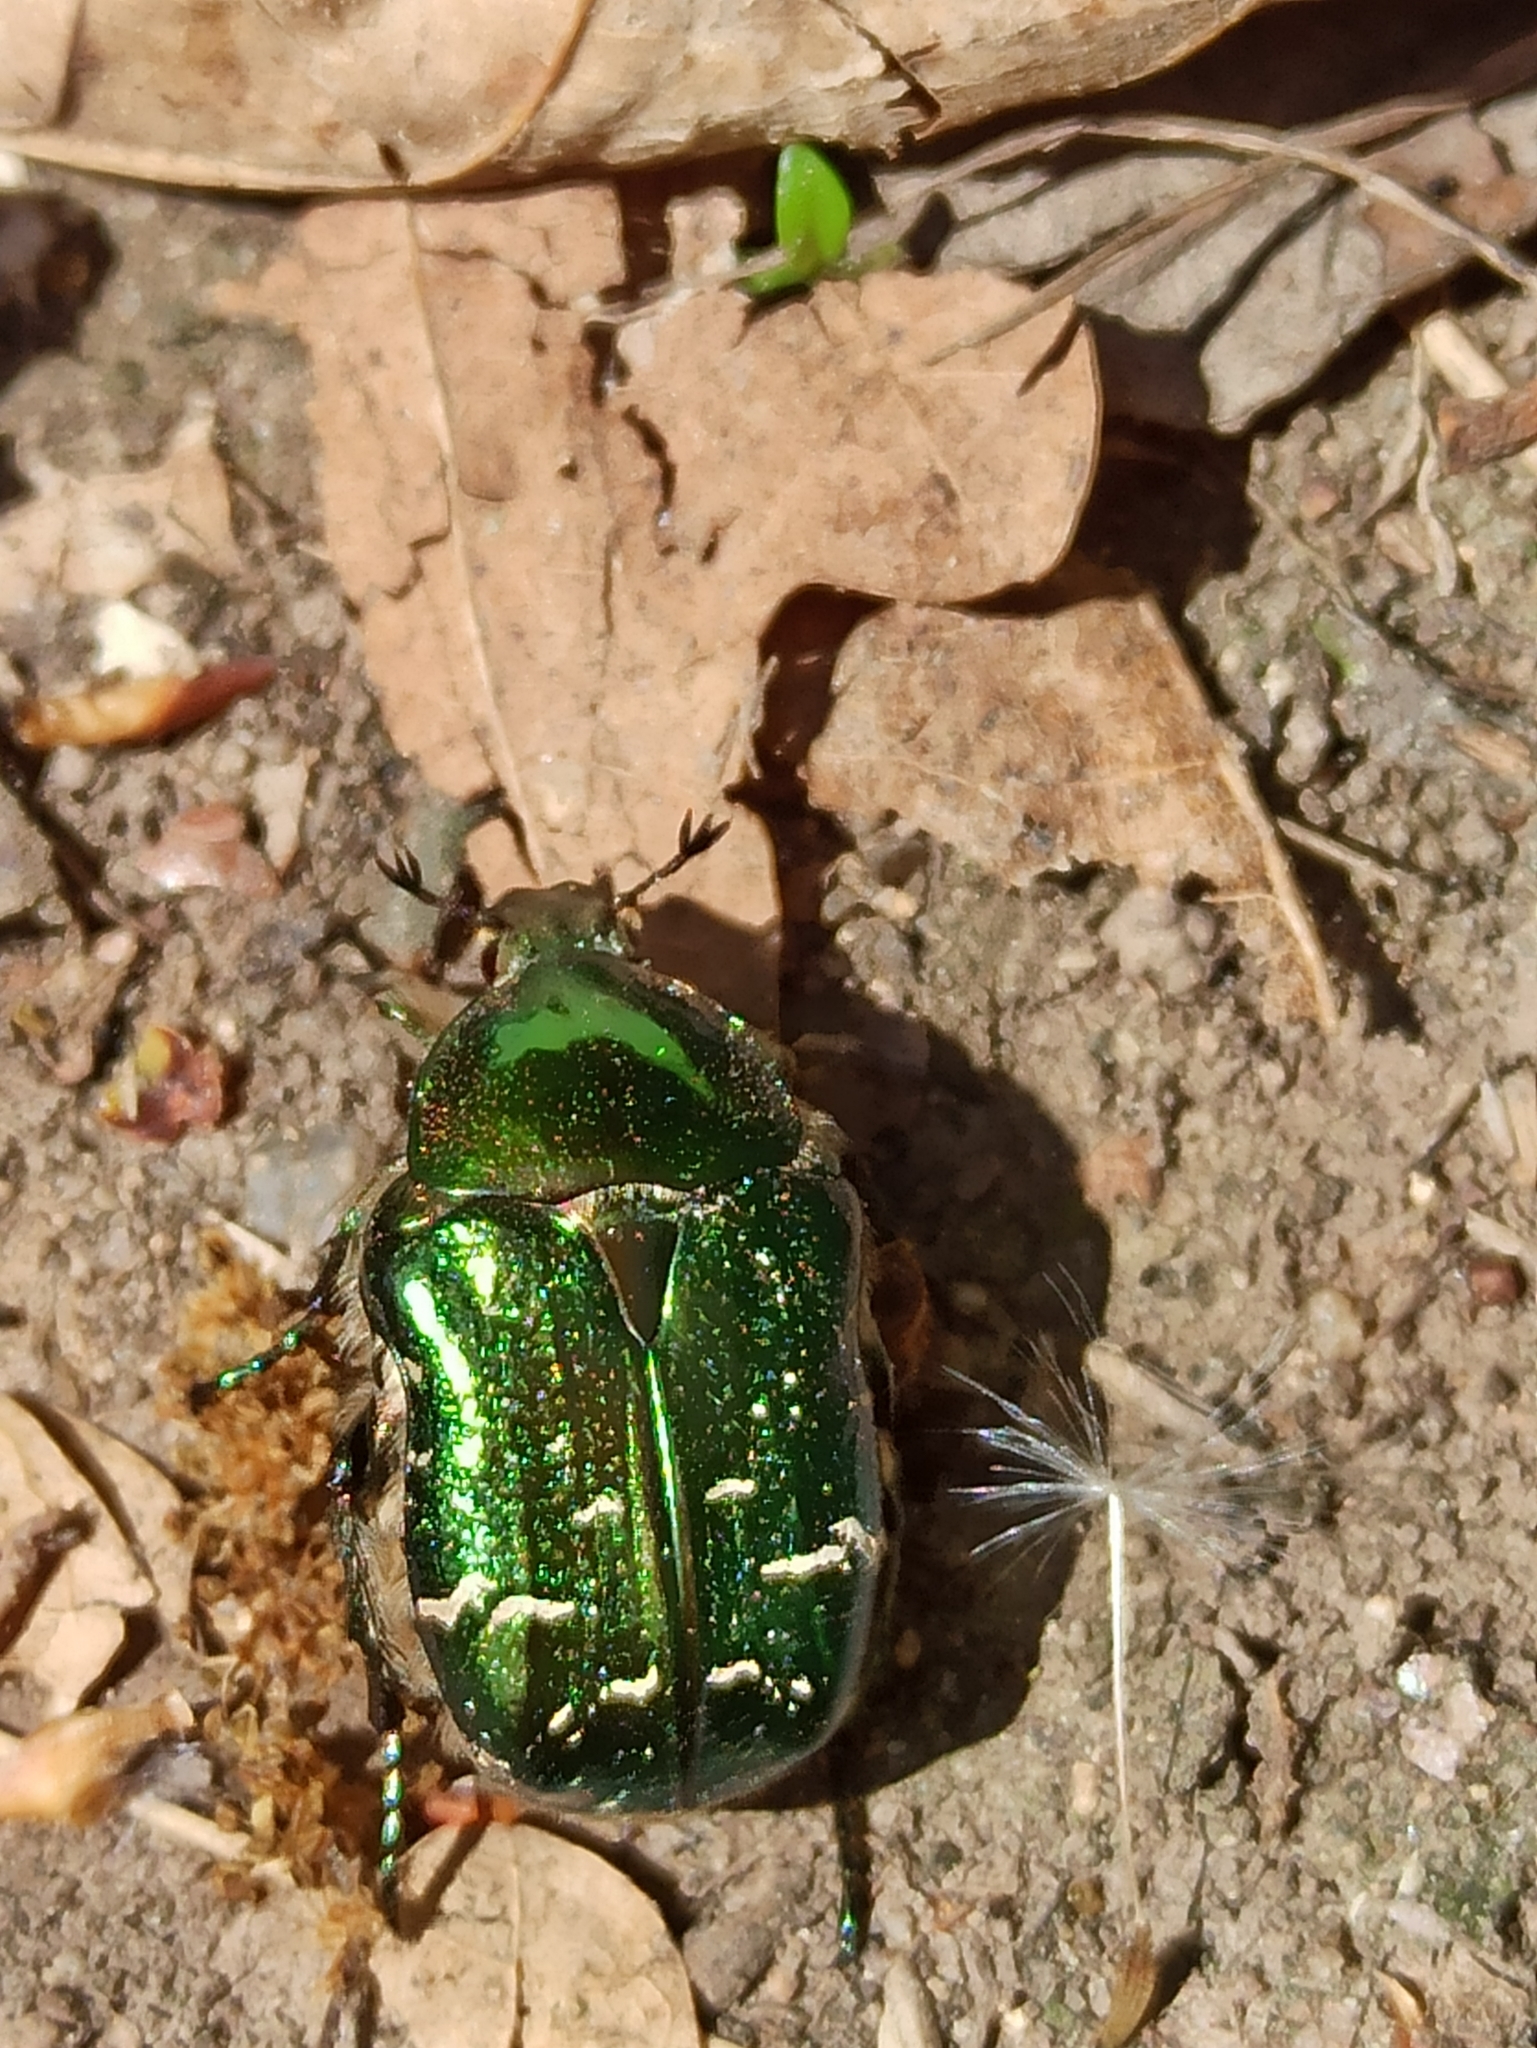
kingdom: Animalia
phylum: Arthropoda
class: Insecta
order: Coleoptera
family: Scarabaeidae
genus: Cetonia
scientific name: Cetonia aurata
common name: Rose chafer
